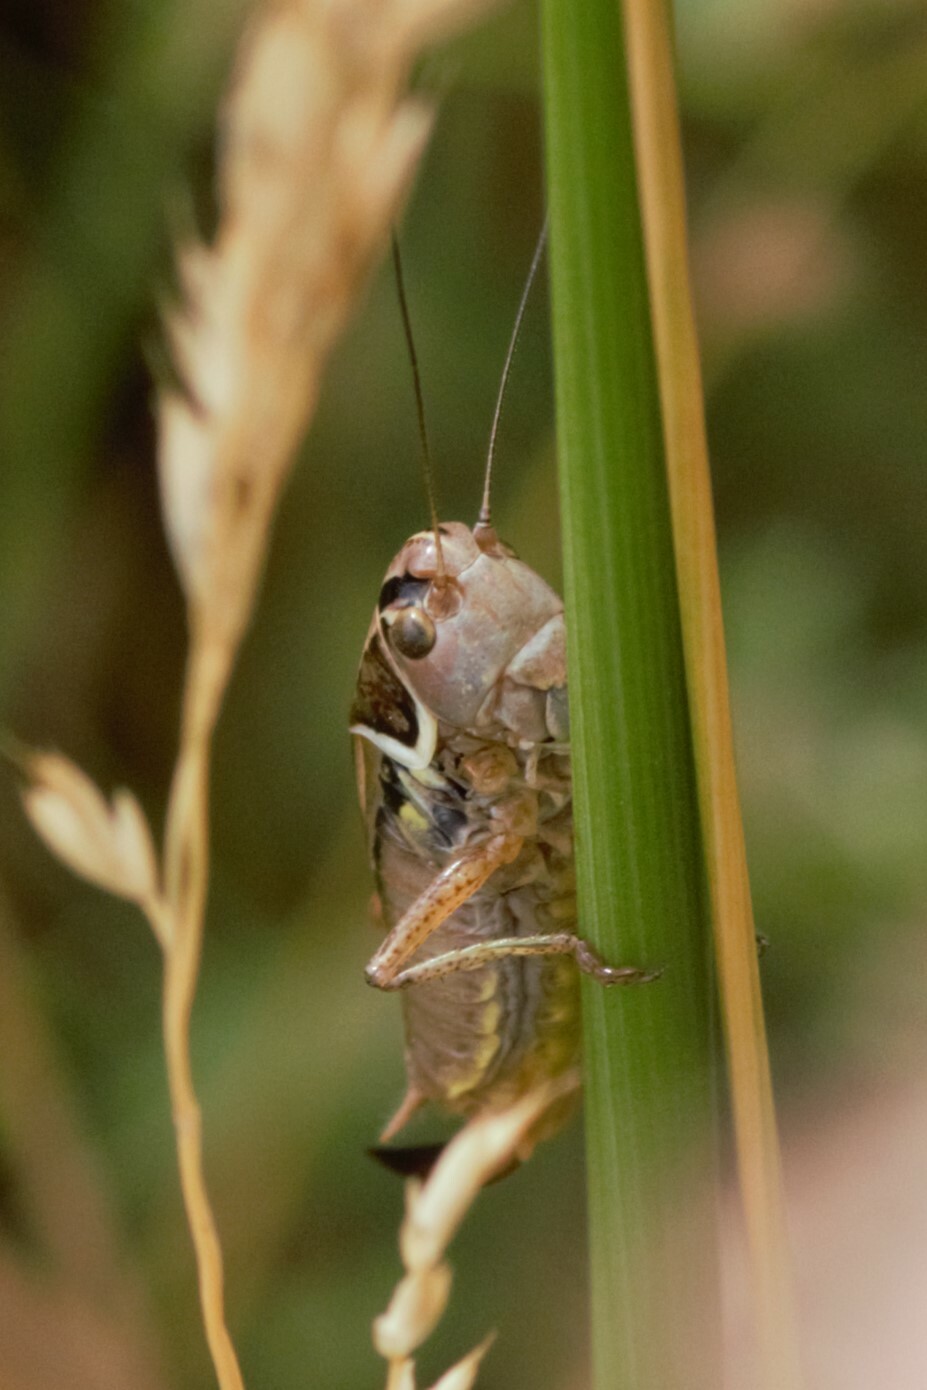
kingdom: Animalia
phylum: Arthropoda
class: Insecta
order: Orthoptera
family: Tettigoniidae
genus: Roeseliana
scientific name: Roeseliana roeselii
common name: Roesel's bush cricket
